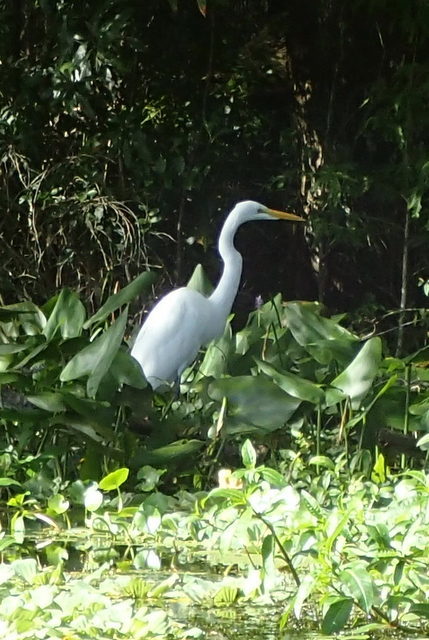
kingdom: Animalia
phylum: Chordata
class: Aves
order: Pelecaniformes
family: Ardeidae
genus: Ardea
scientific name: Ardea alba
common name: Great egret
